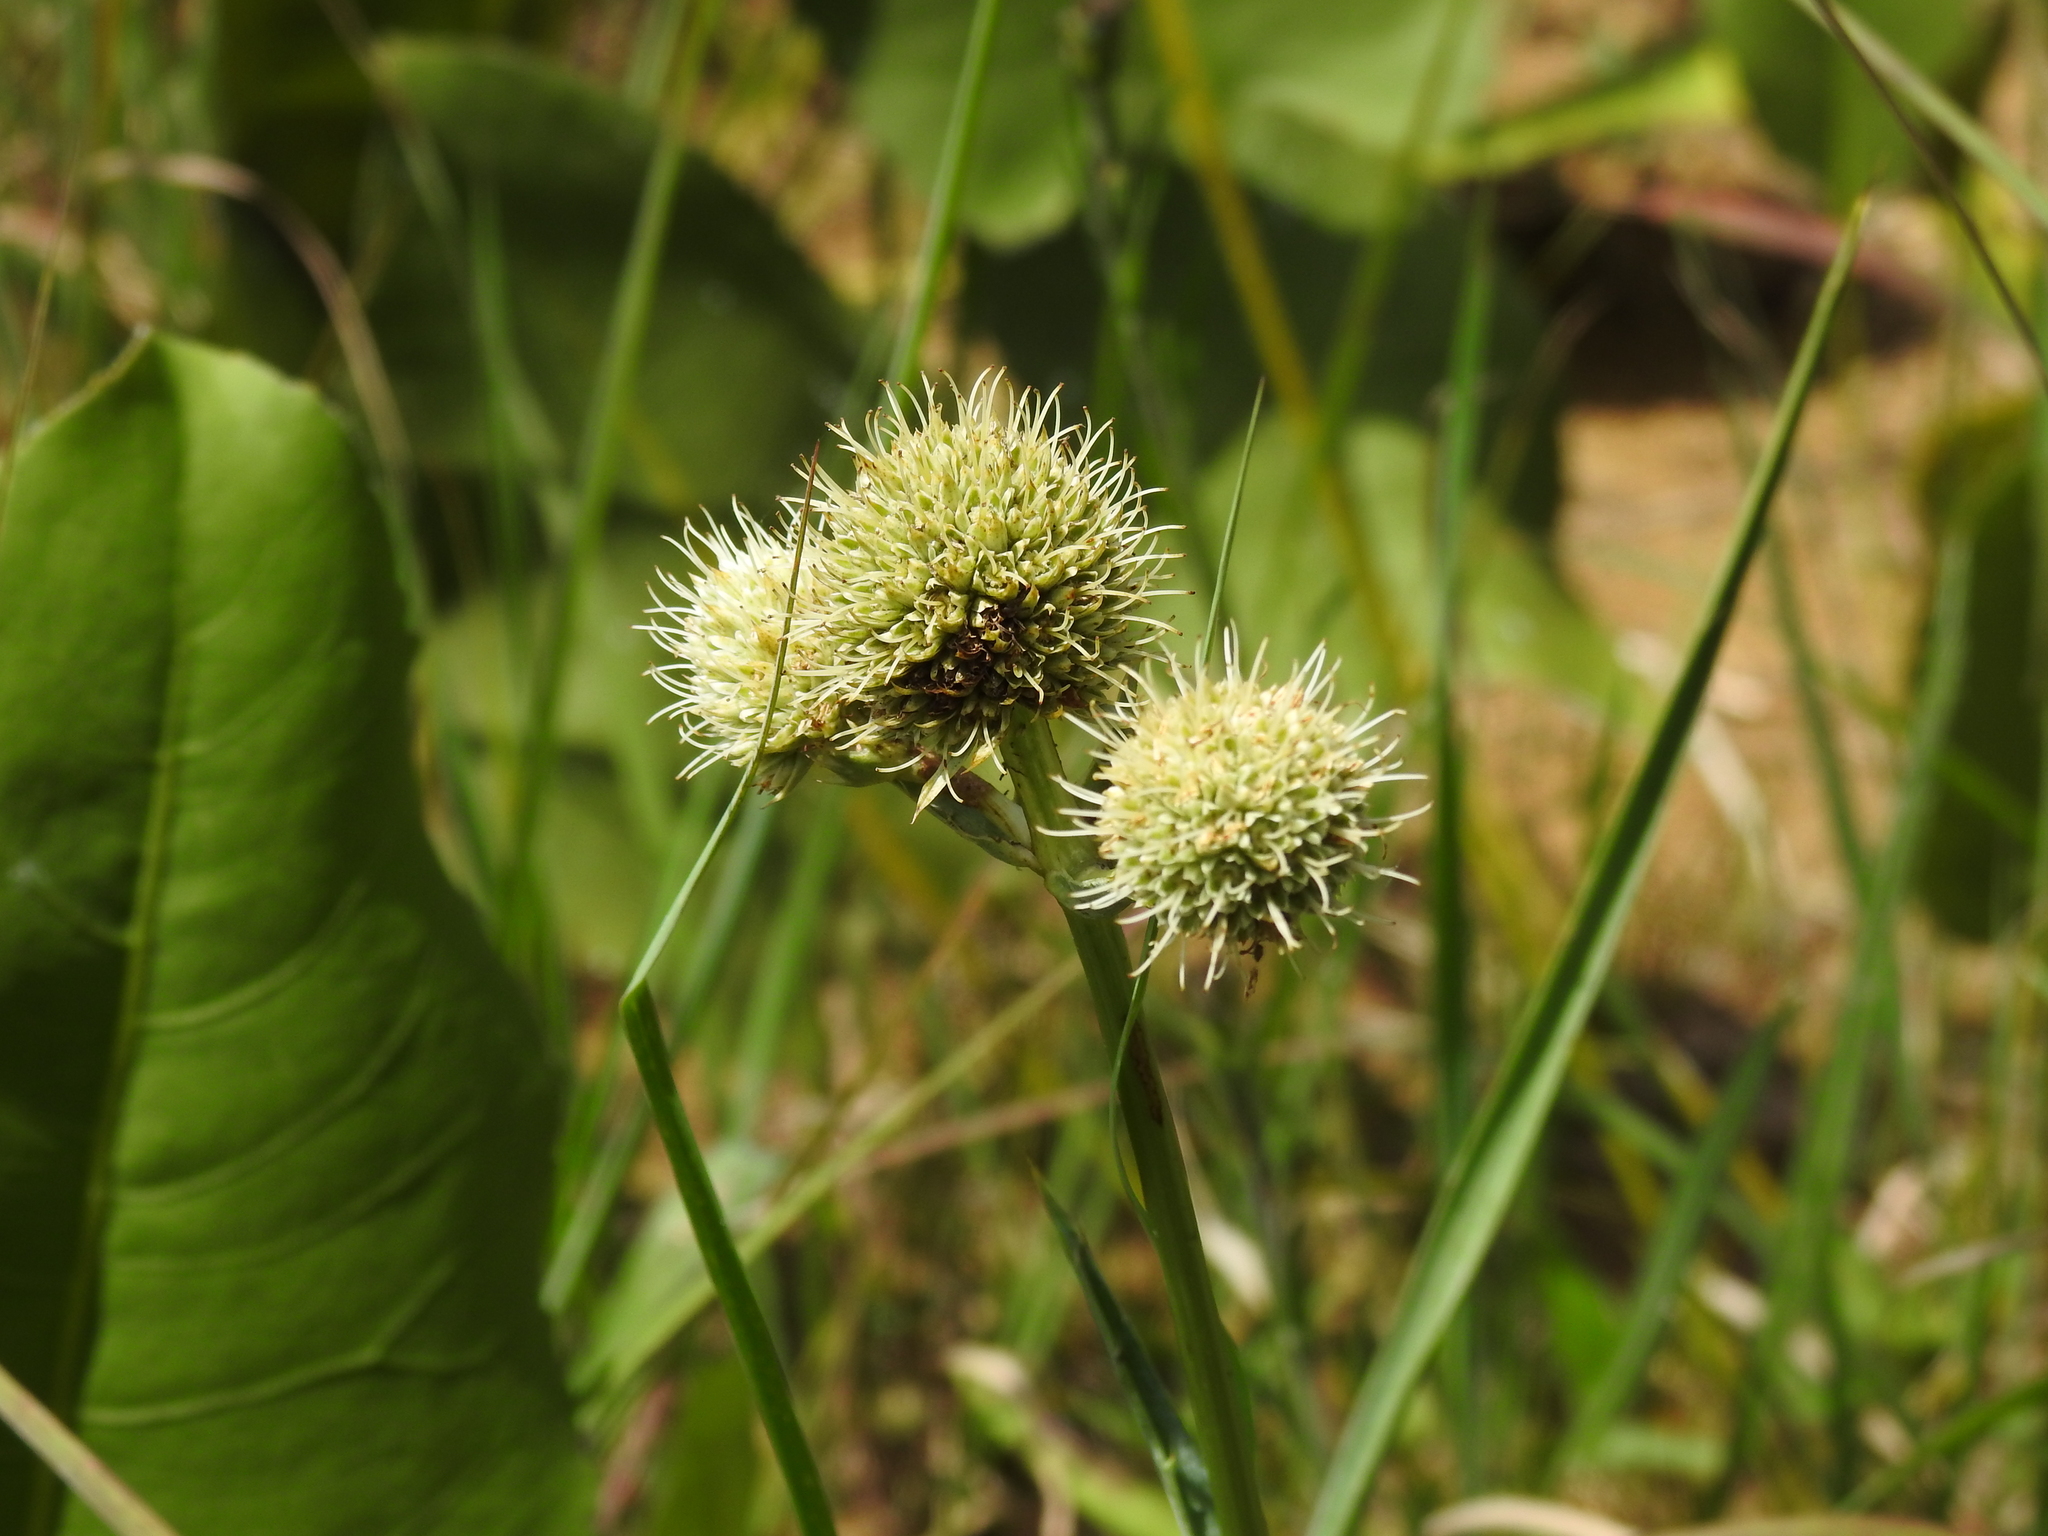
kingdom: Plantae
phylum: Tracheophyta
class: Magnoliopsida
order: Apiales
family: Apiaceae
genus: Eryngium
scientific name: Eryngium yuccifolium
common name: Button eryngo
